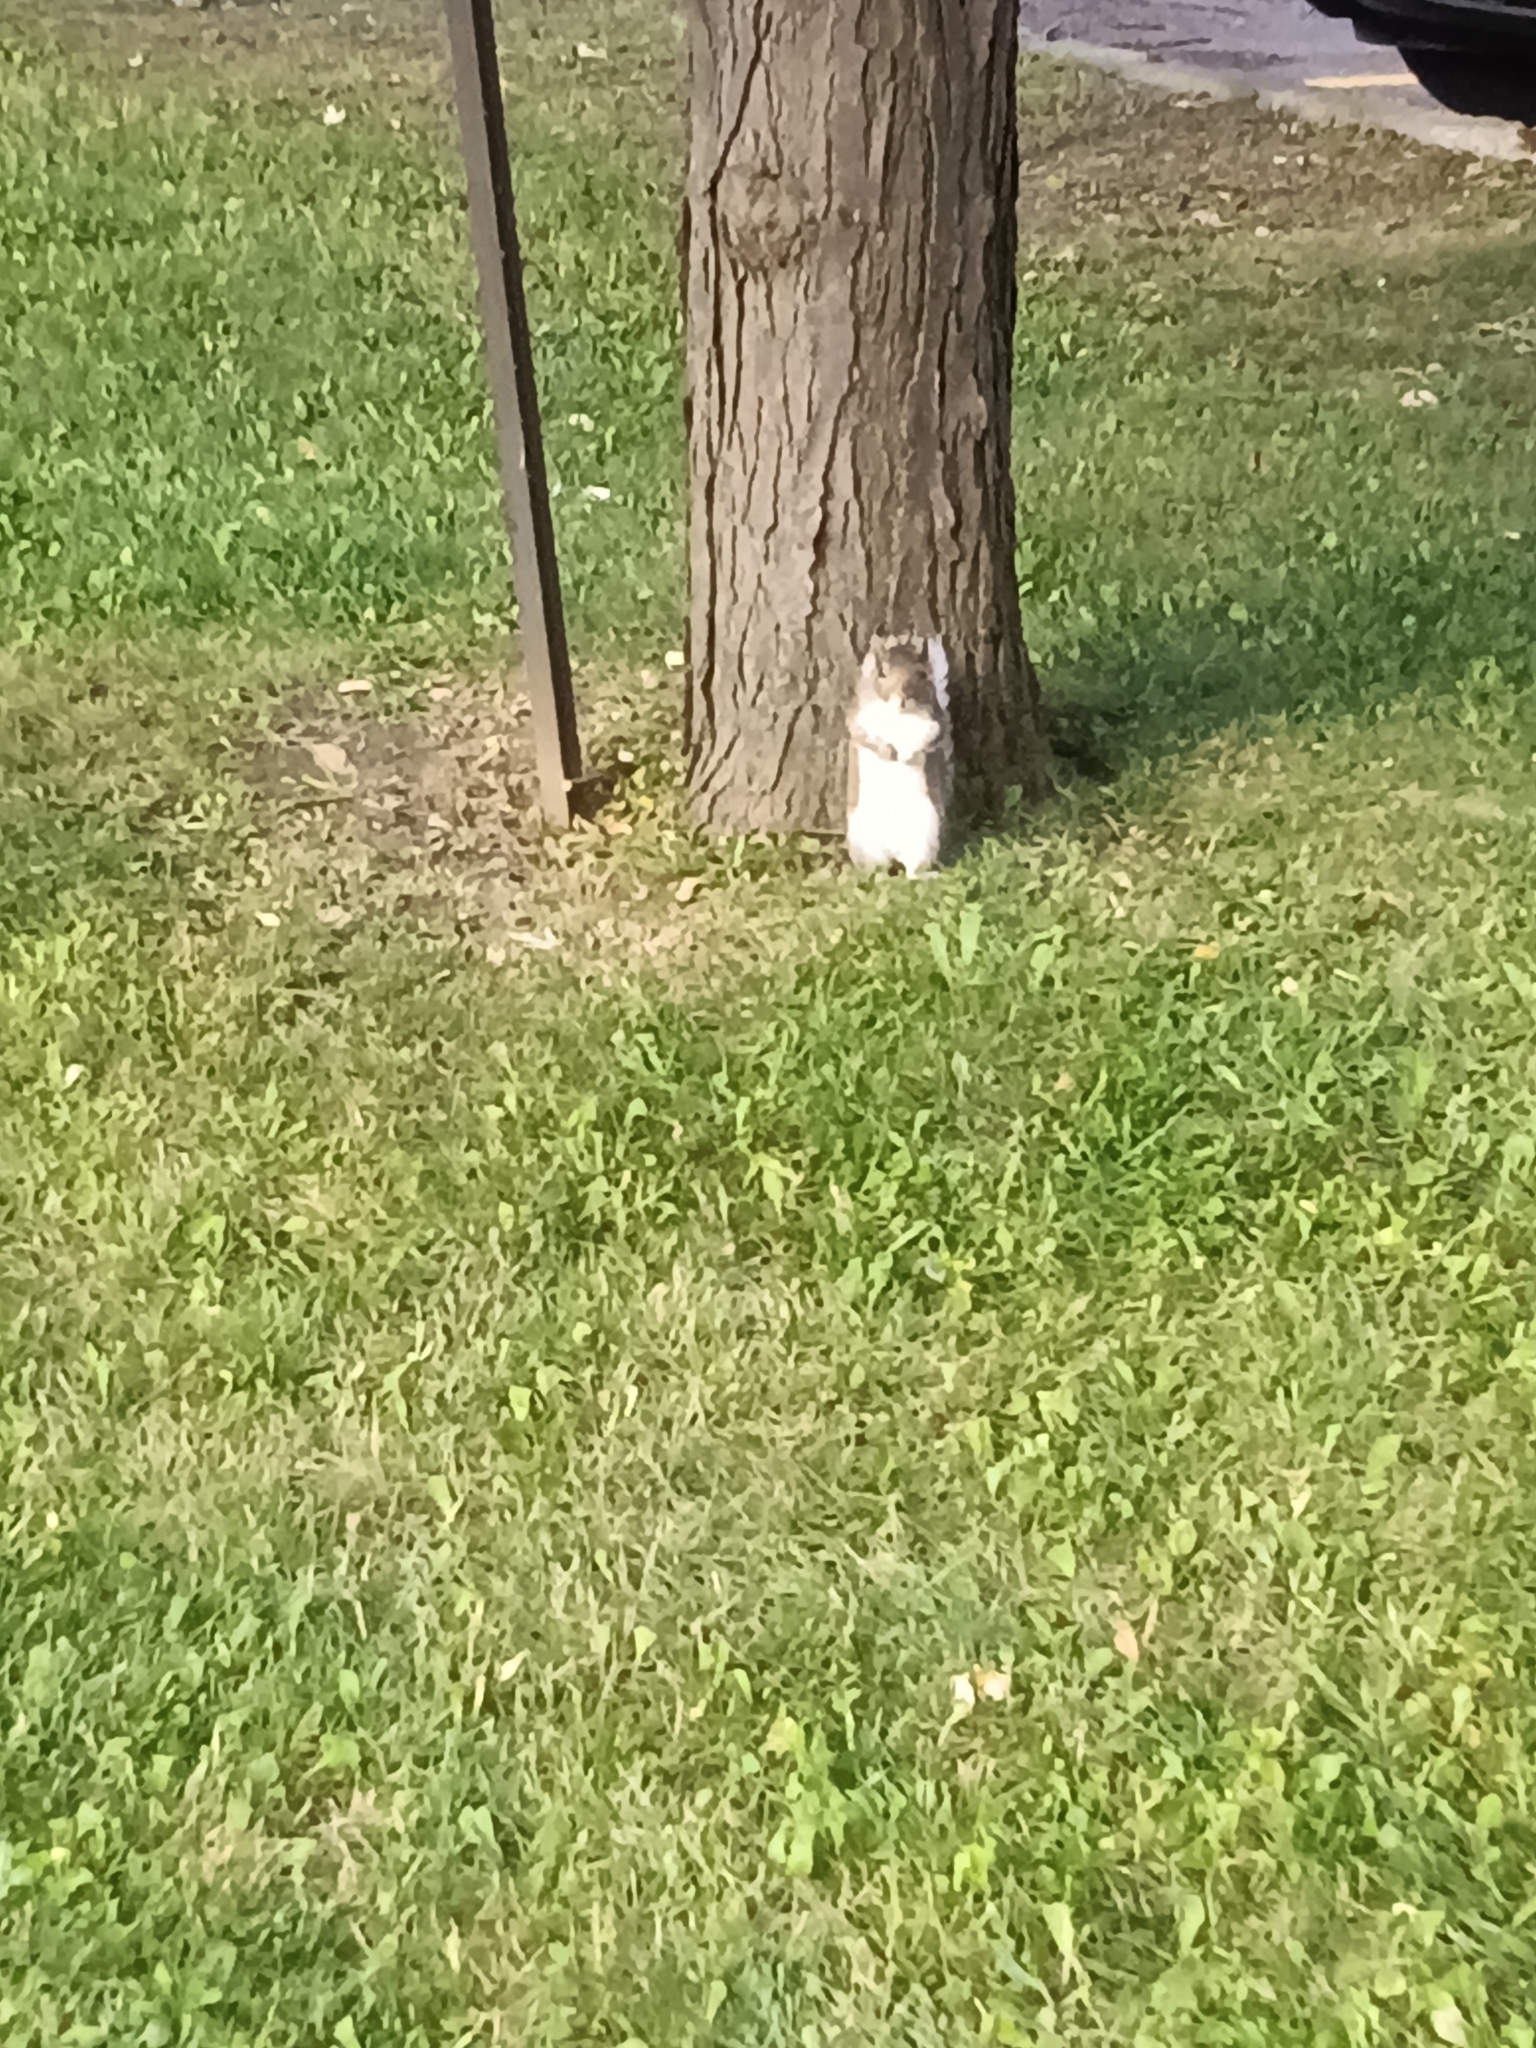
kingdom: Animalia
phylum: Chordata
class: Mammalia
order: Rodentia
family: Sciuridae
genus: Sciurus
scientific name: Sciurus carolinensis
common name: Eastern gray squirrel
